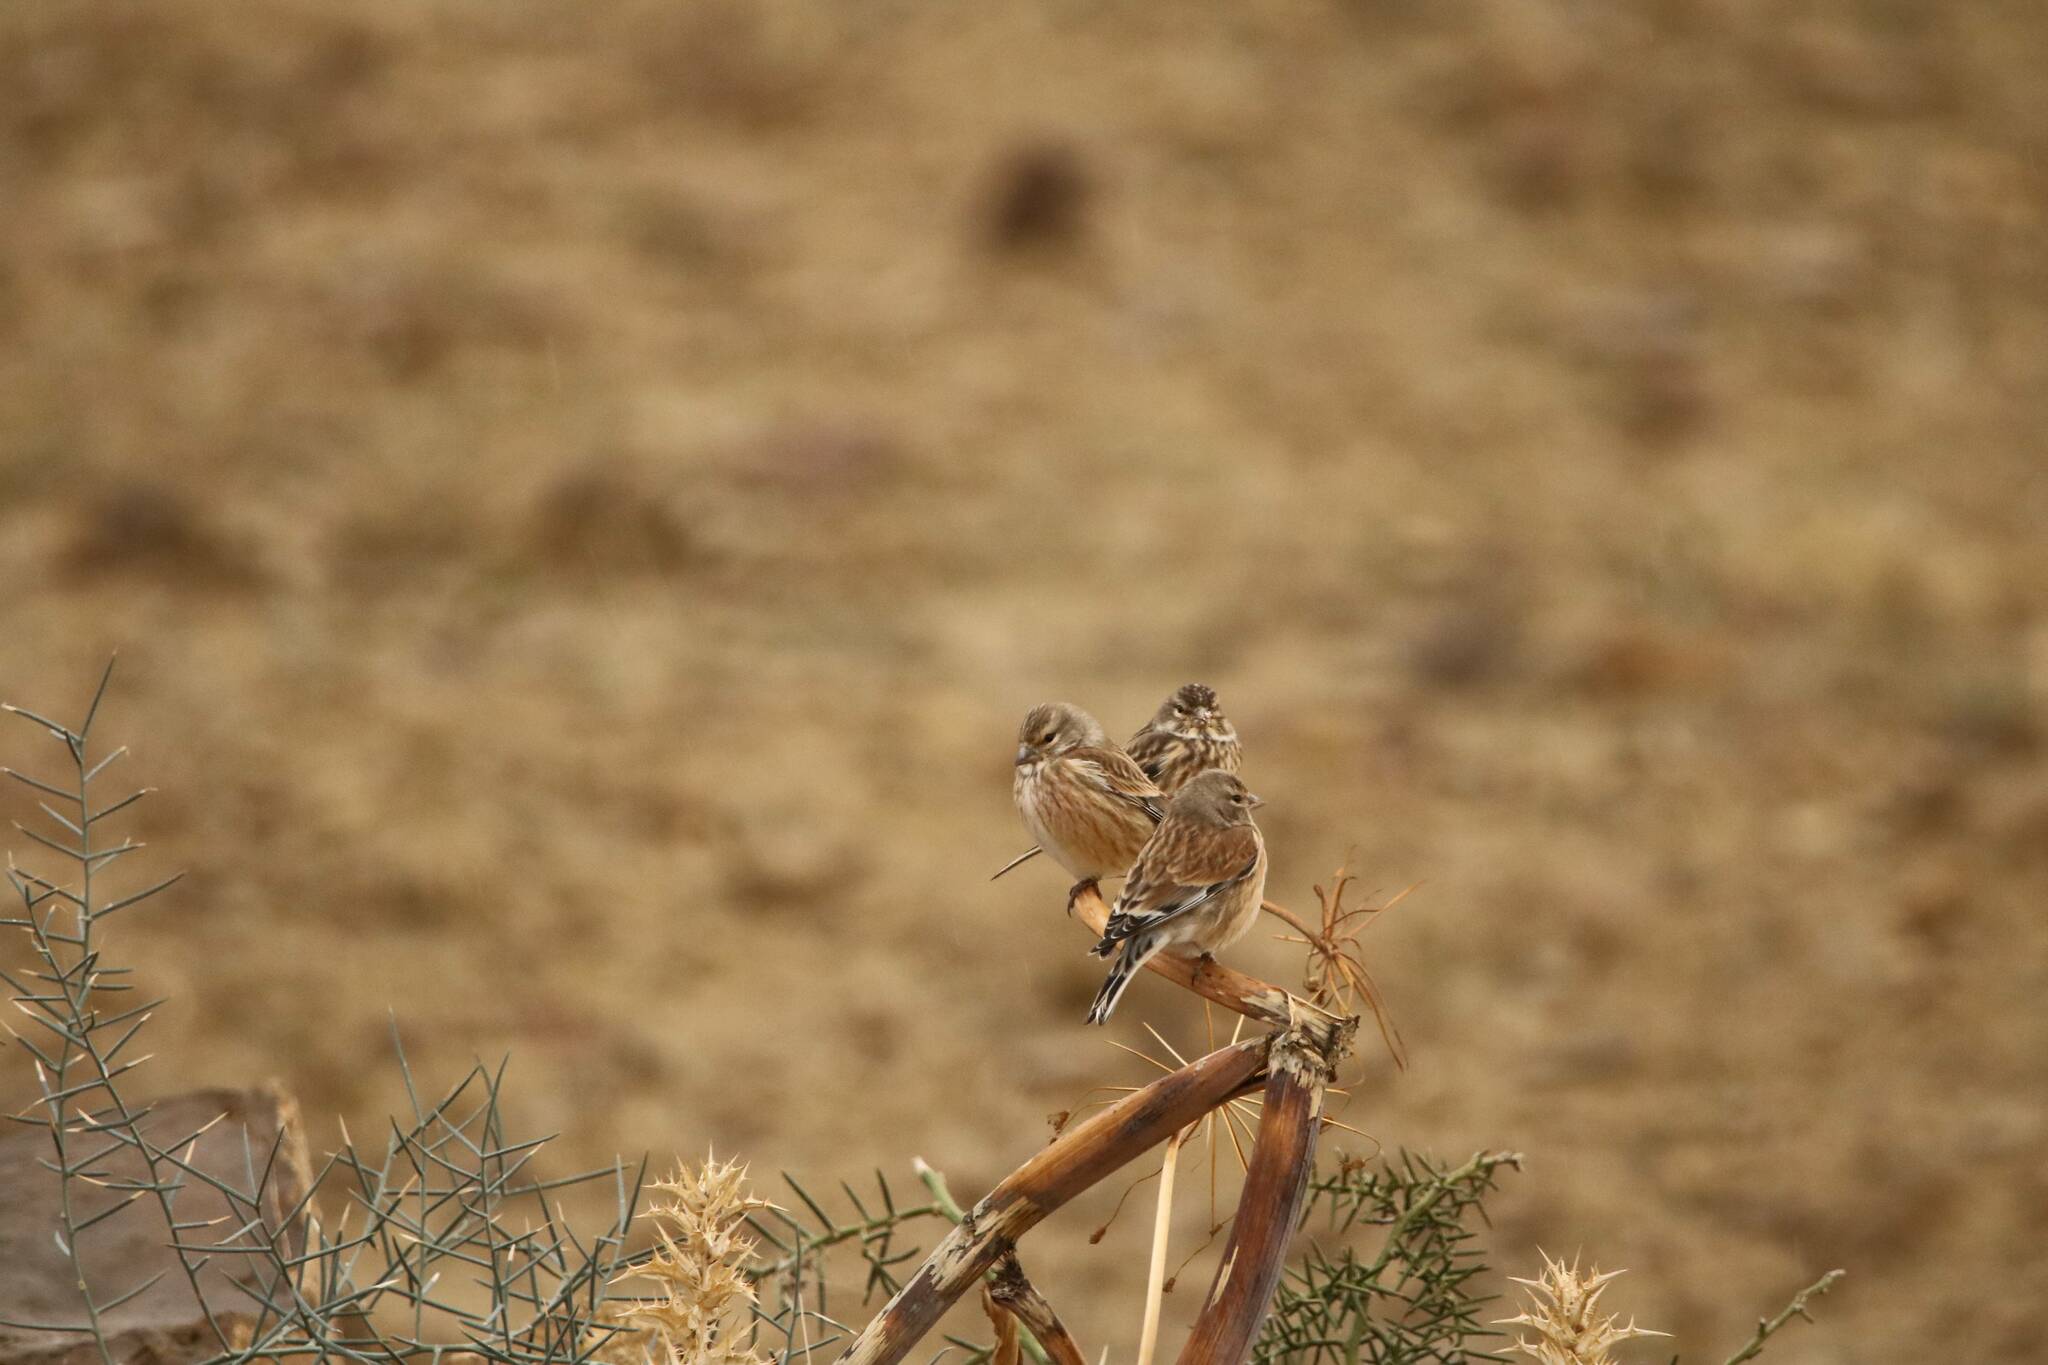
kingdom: Animalia
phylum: Chordata
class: Aves
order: Passeriformes
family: Fringillidae
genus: Linaria
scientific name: Linaria cannabina
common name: Common linnet
